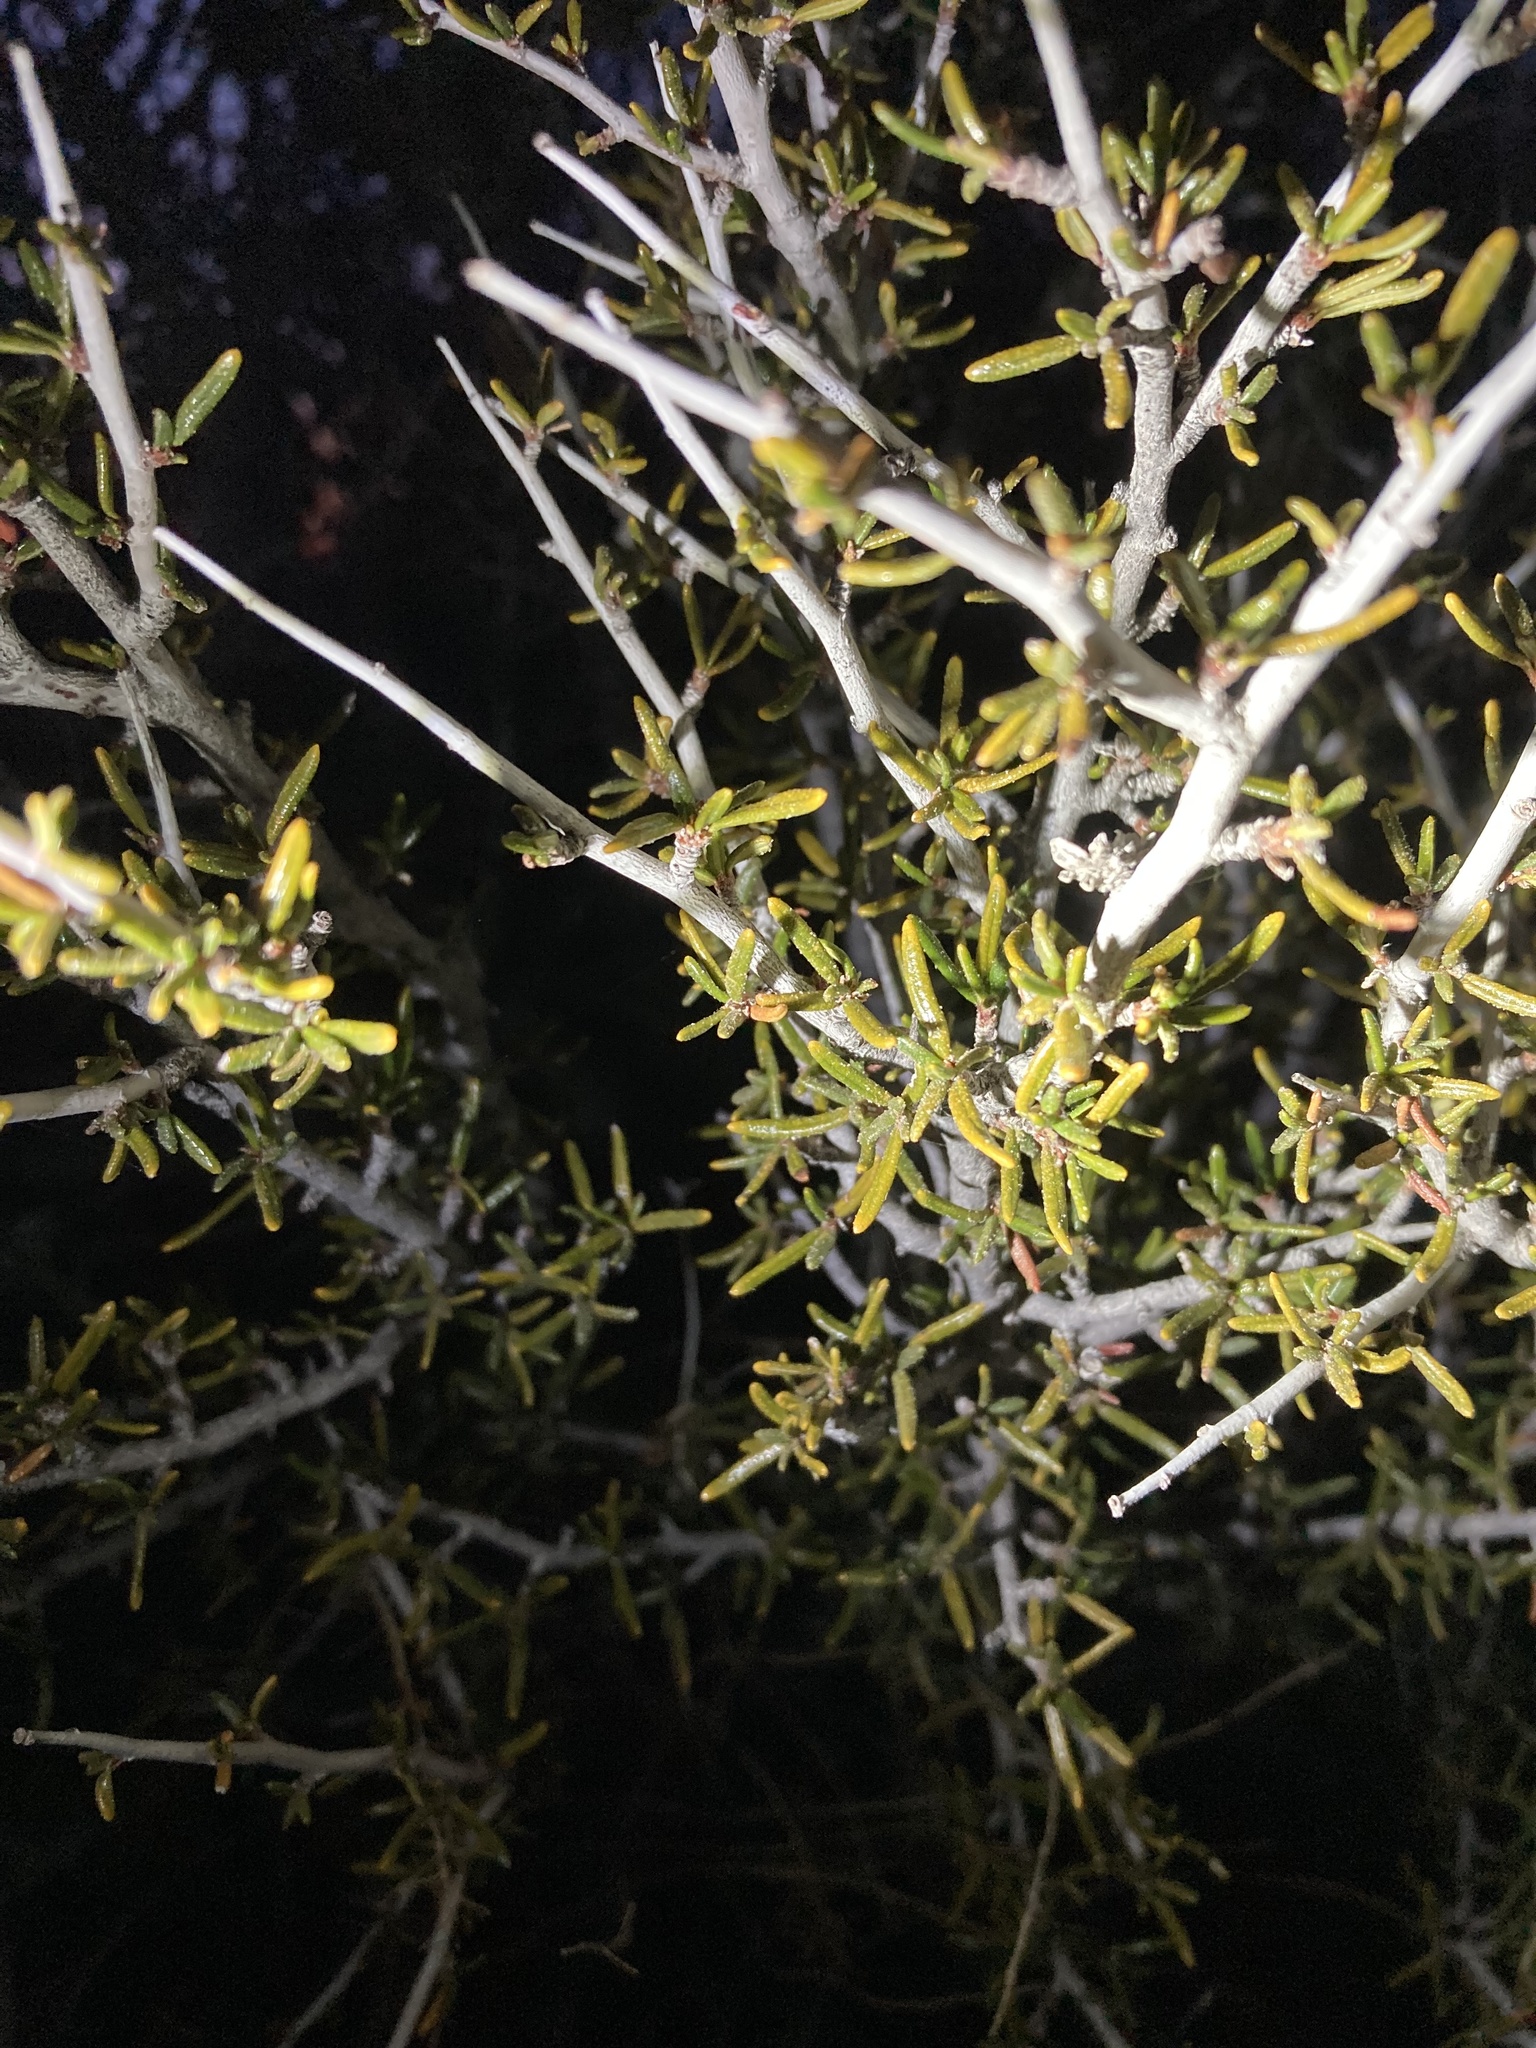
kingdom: Plantae
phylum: Tracheophyta
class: Magnoliopsida
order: Rosales
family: Rosaceae
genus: Cercocarpus
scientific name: Cercocarpus intricatus
